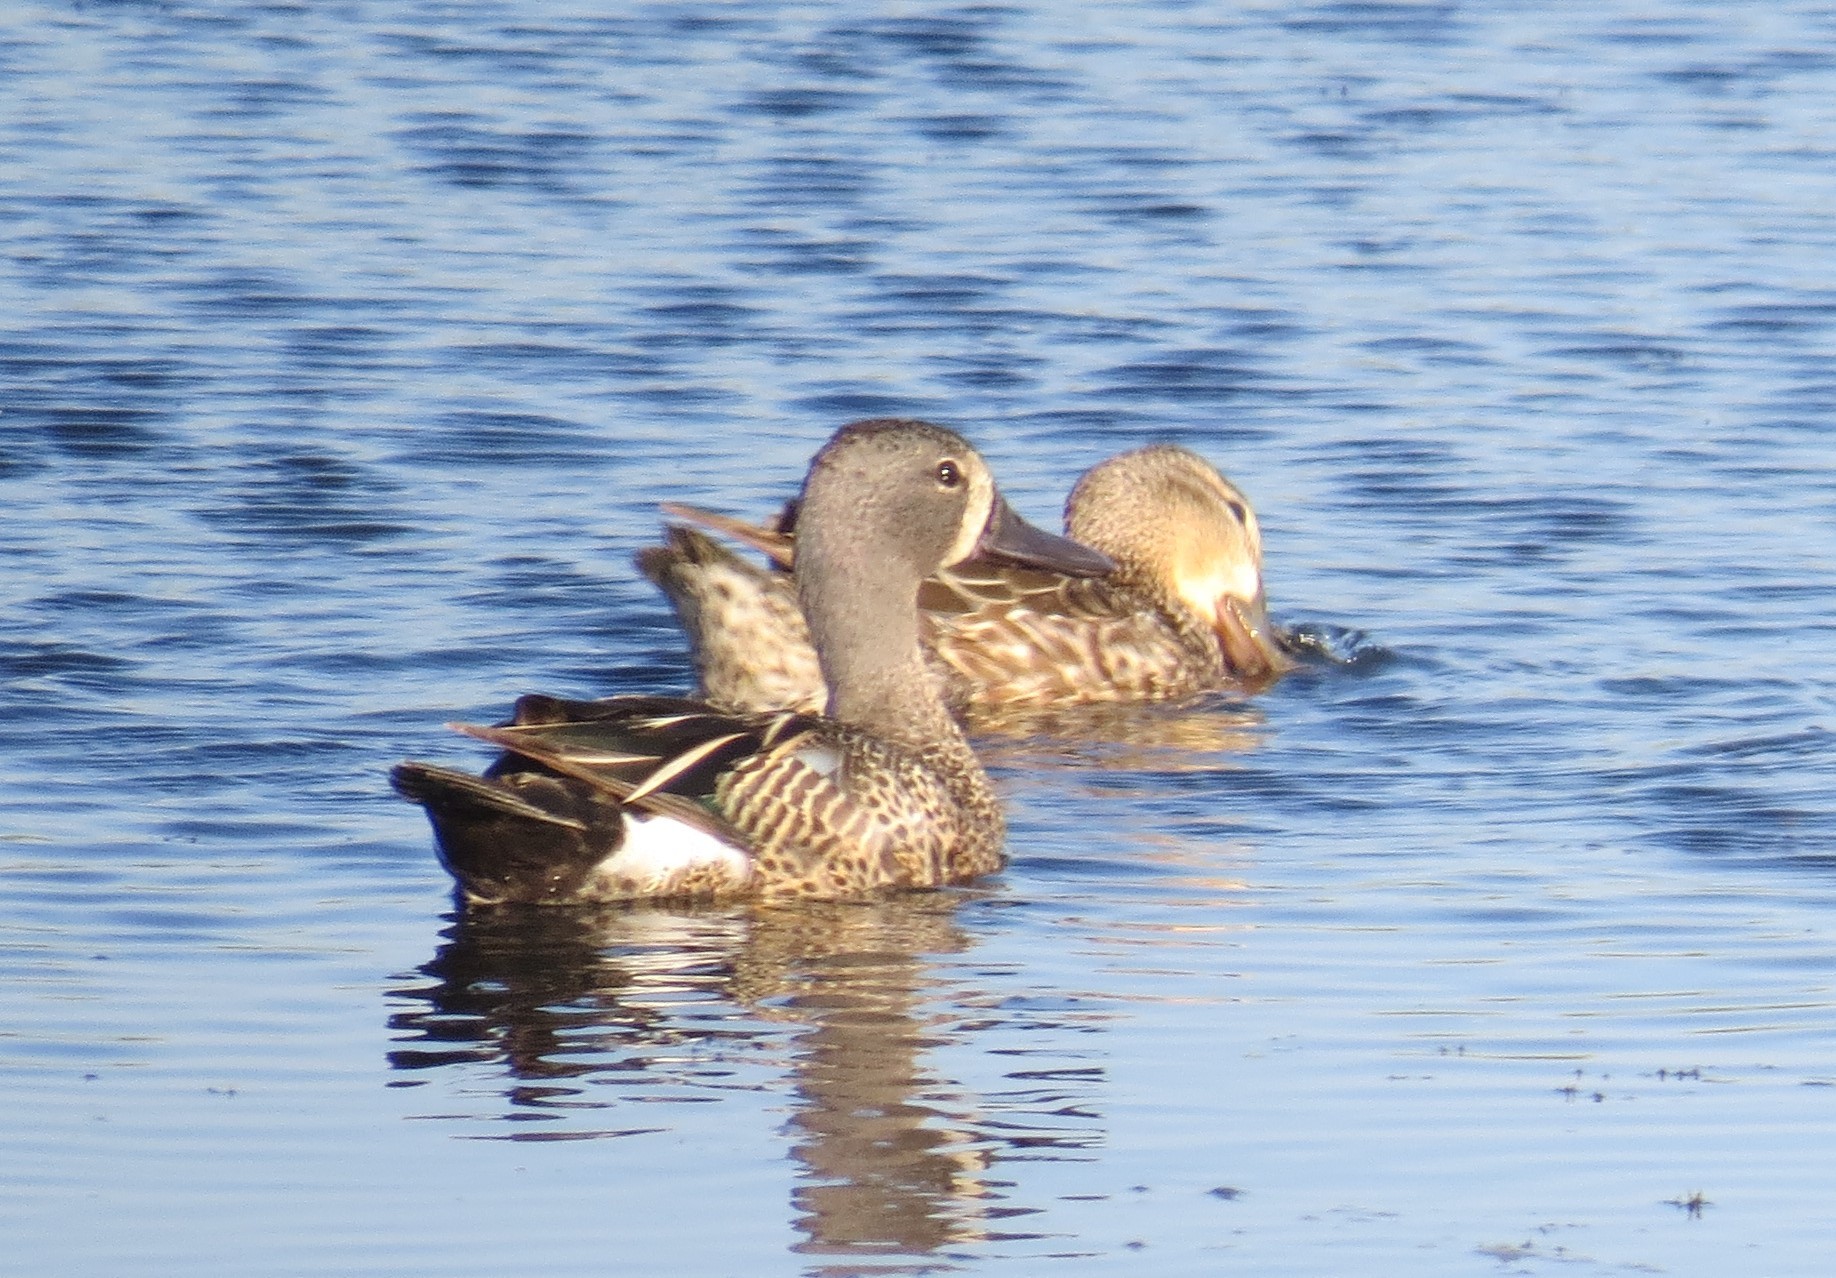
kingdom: Animalia
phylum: Chordata
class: Aves
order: Anseriformes
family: Anatidae
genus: Spatula
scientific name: Spatula discors
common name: Blue-winged teal
